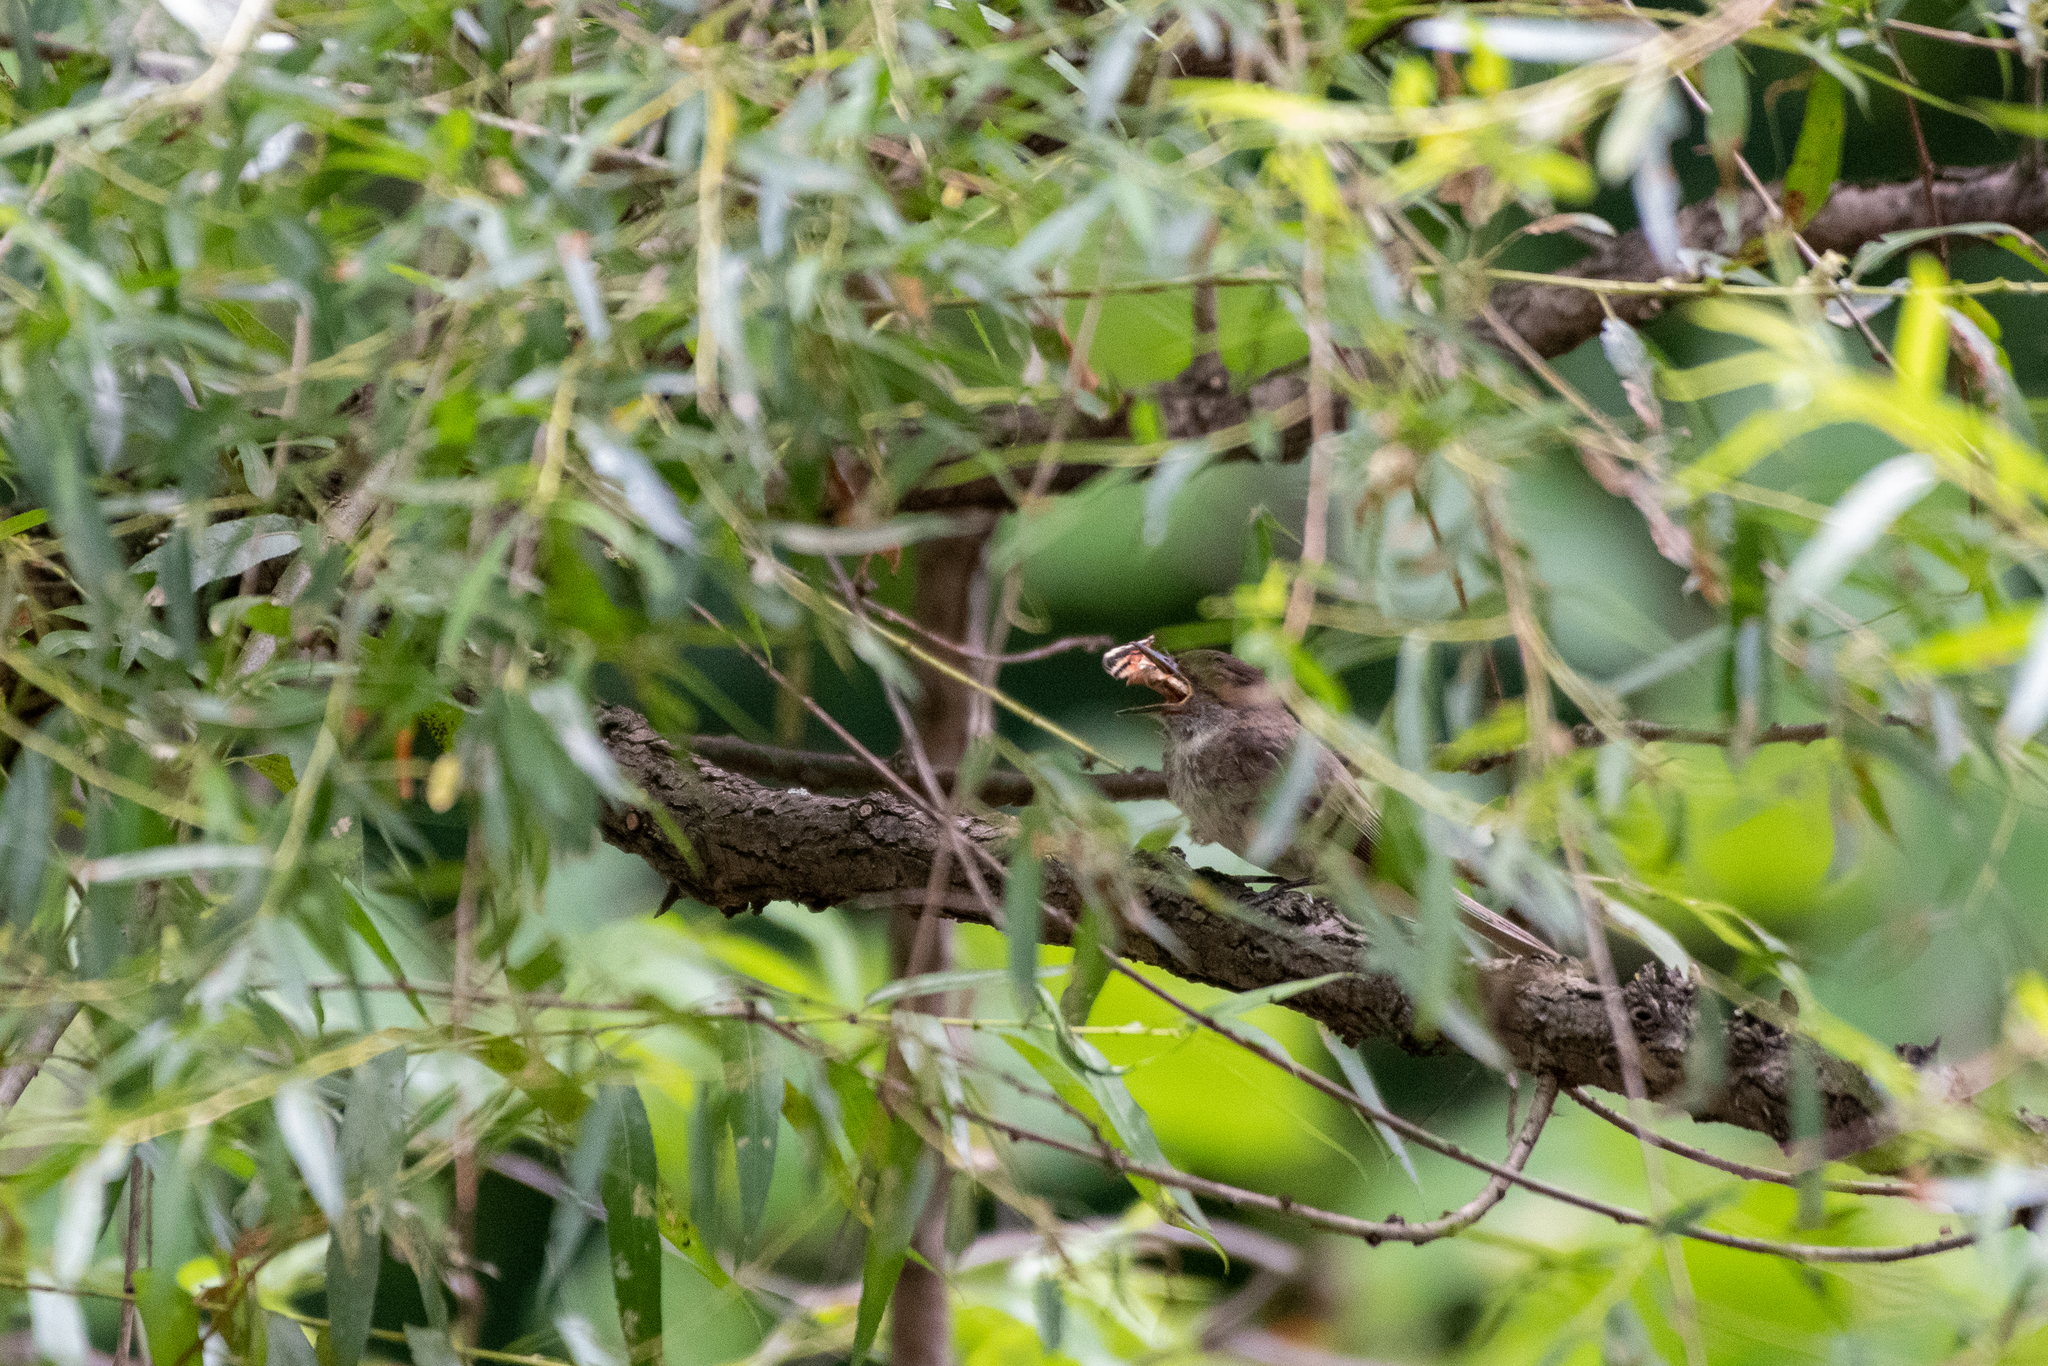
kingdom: Animalia
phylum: Chordata
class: Aves
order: Passeriformes
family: Tyrannidae
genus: Sayornis
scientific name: Sayornis phoebe
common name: Eastern phoebe
